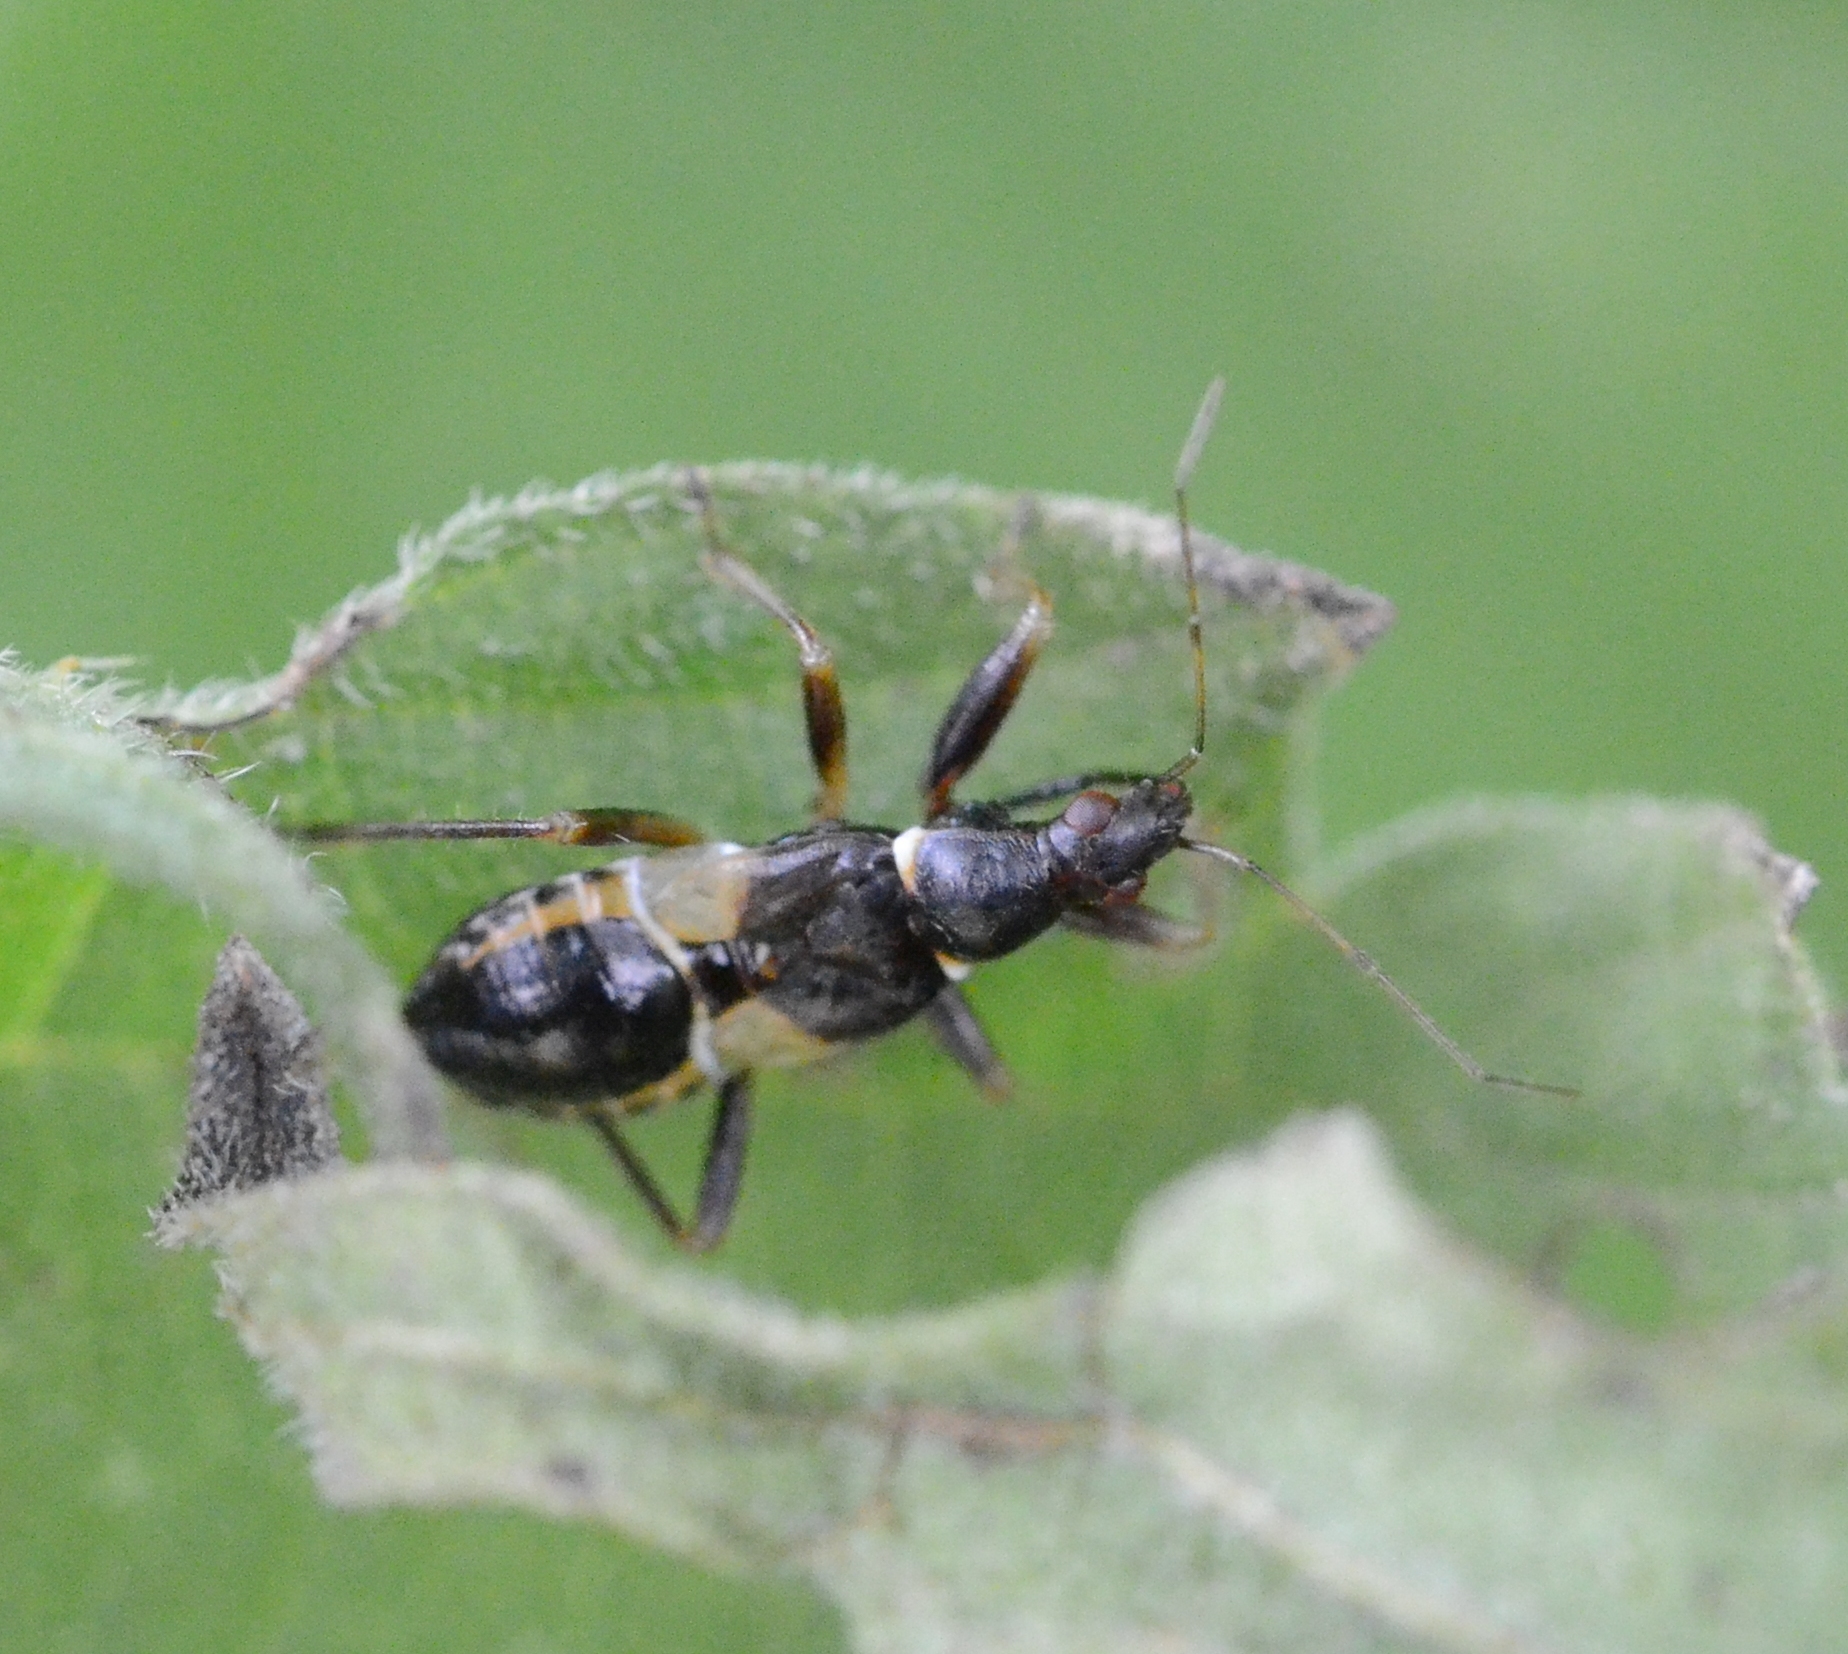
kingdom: Animalia
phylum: Arthropoda
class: Insecta
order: Hemiptera
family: Nabidae
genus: Himacerus
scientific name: Himacerus mirmicoides
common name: Ant damsel bug
